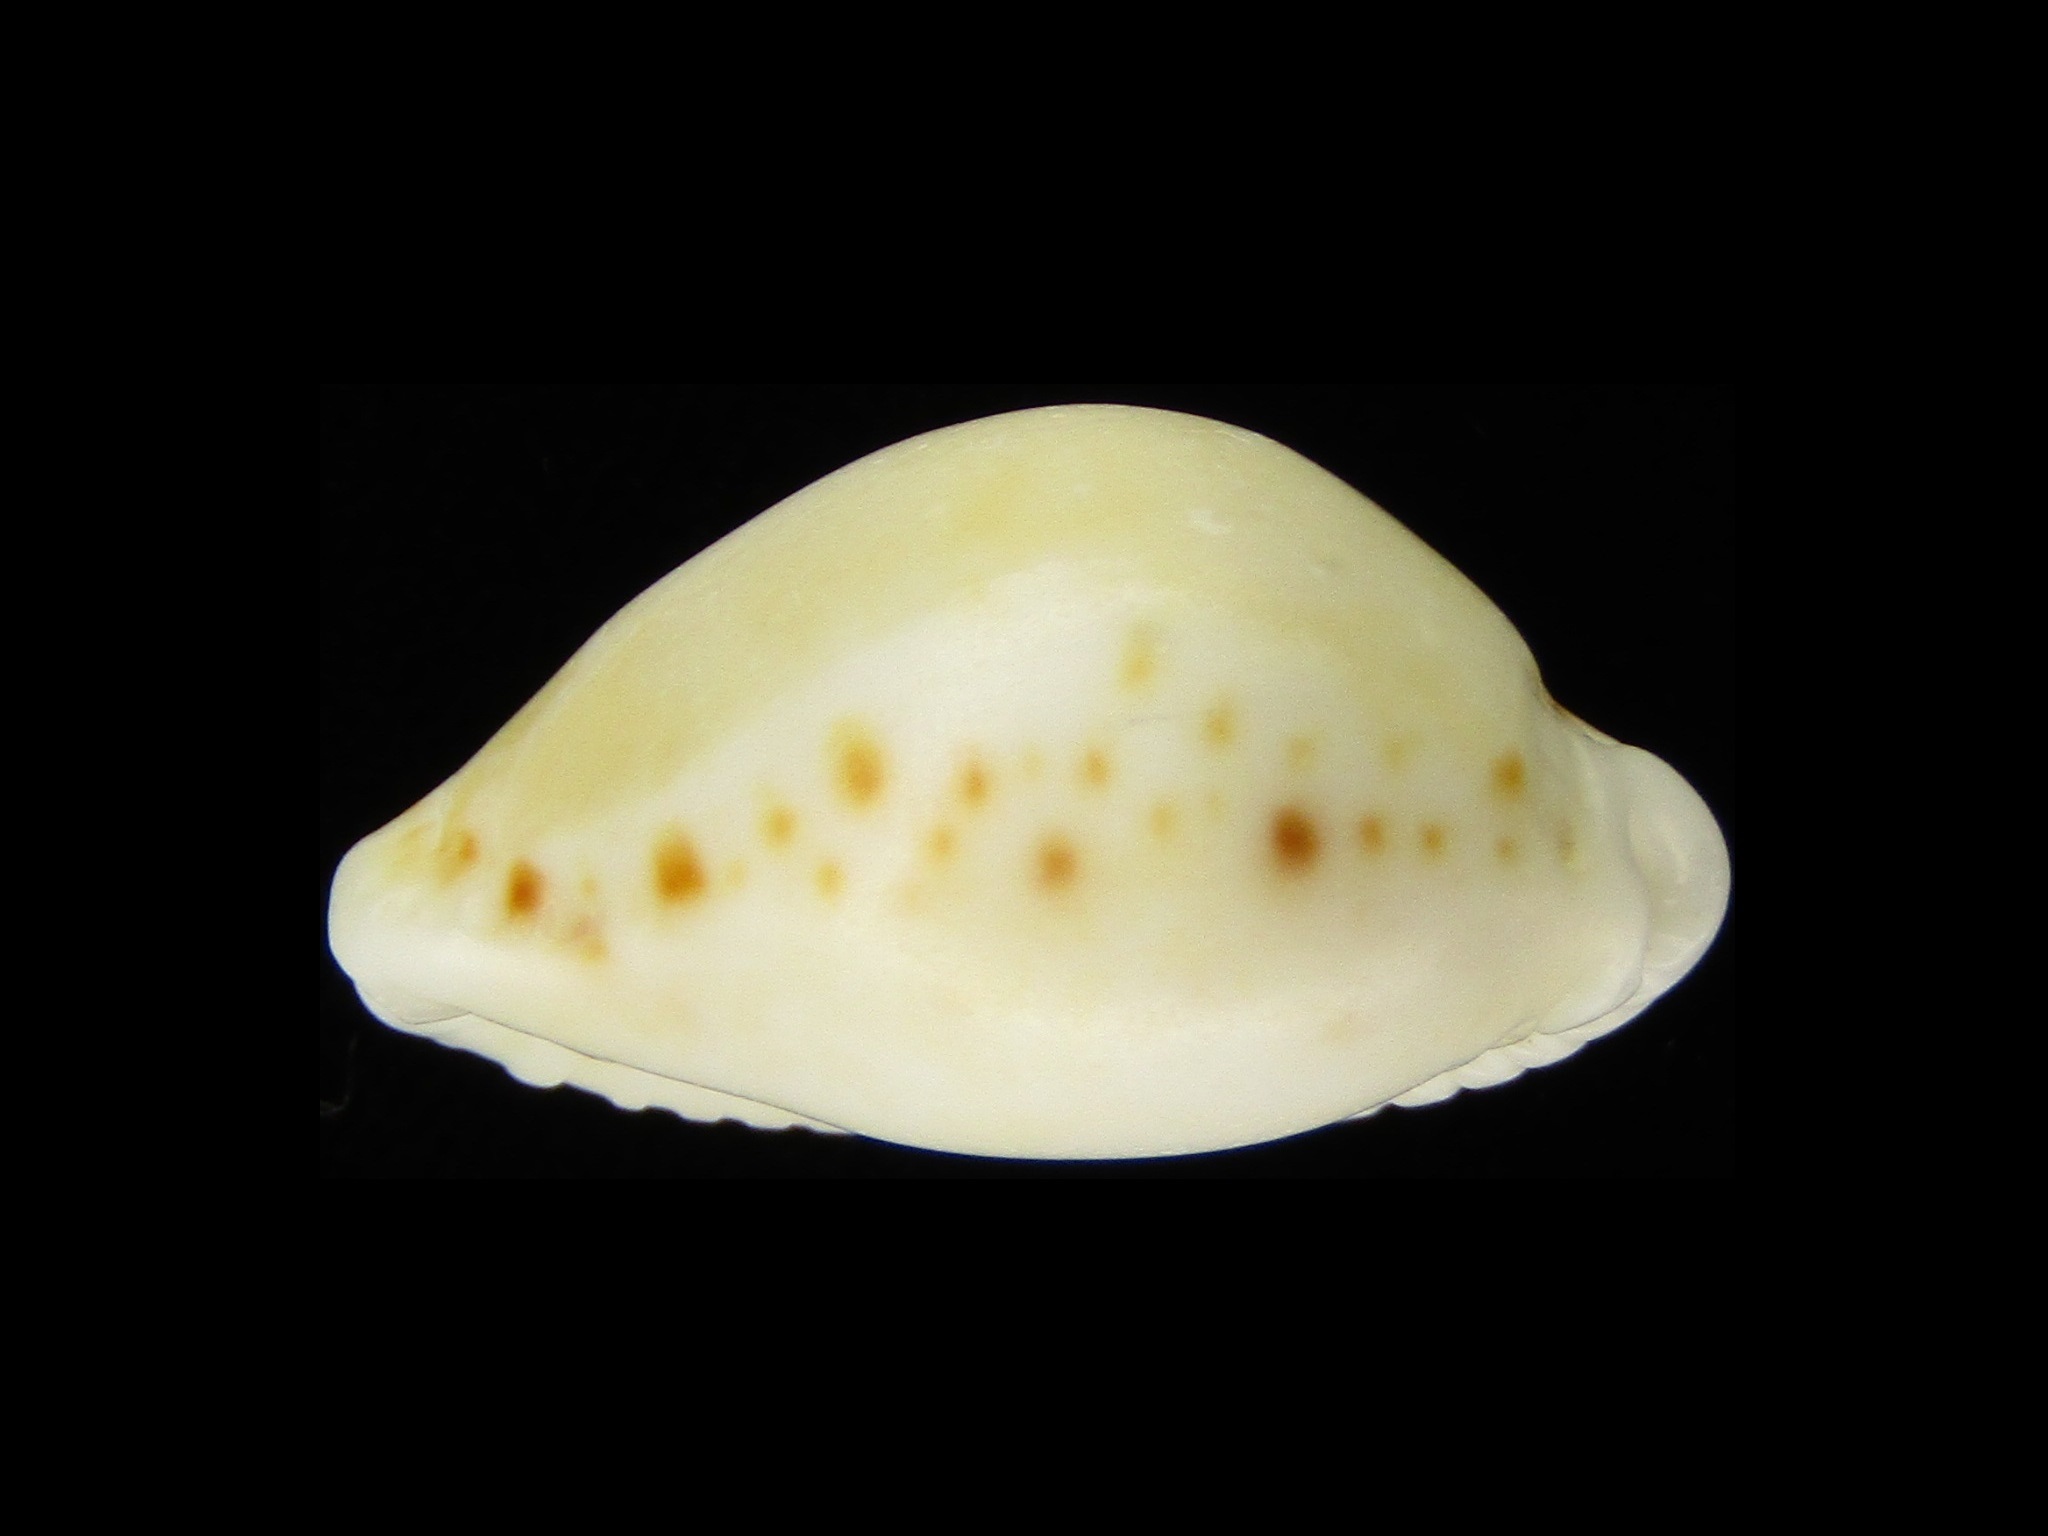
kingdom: Animalia
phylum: Mollusca
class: Gastropoda
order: Littorinimorpha
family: Cypraeidae
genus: Naria
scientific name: Naria cernica
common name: Separated cowry (from spurca and gangranosa)
